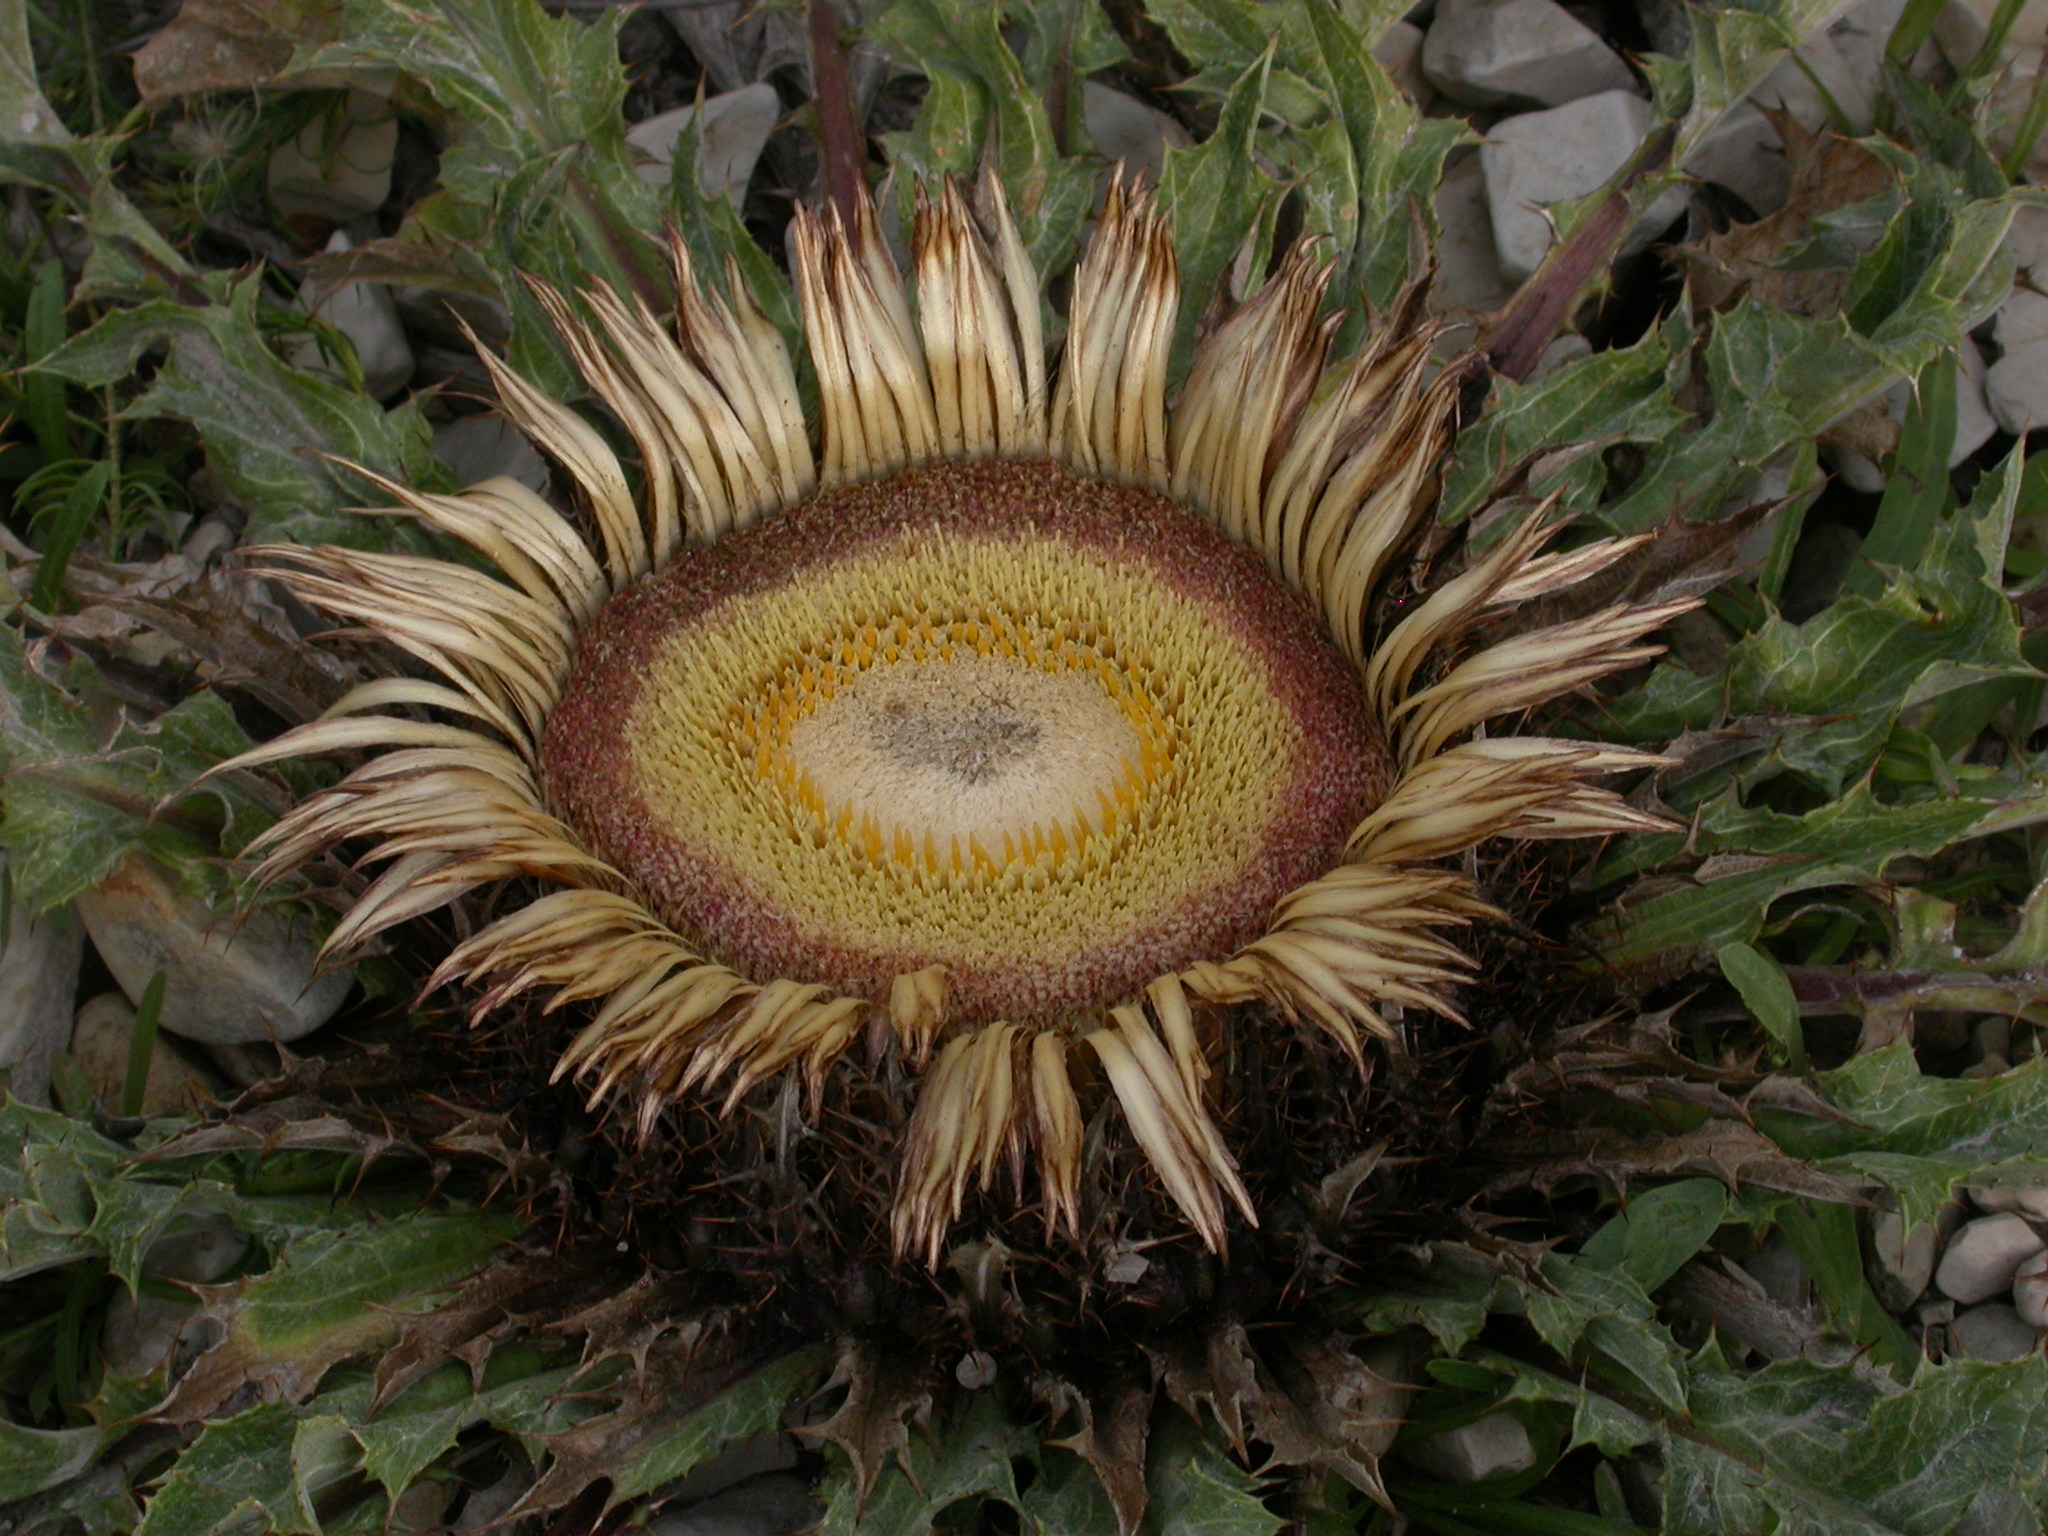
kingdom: Plantae
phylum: Tracheophyta
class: Magnoliopsida
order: Asterales
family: Asteraceae
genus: Carlina
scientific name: Carlina acanthifolia
